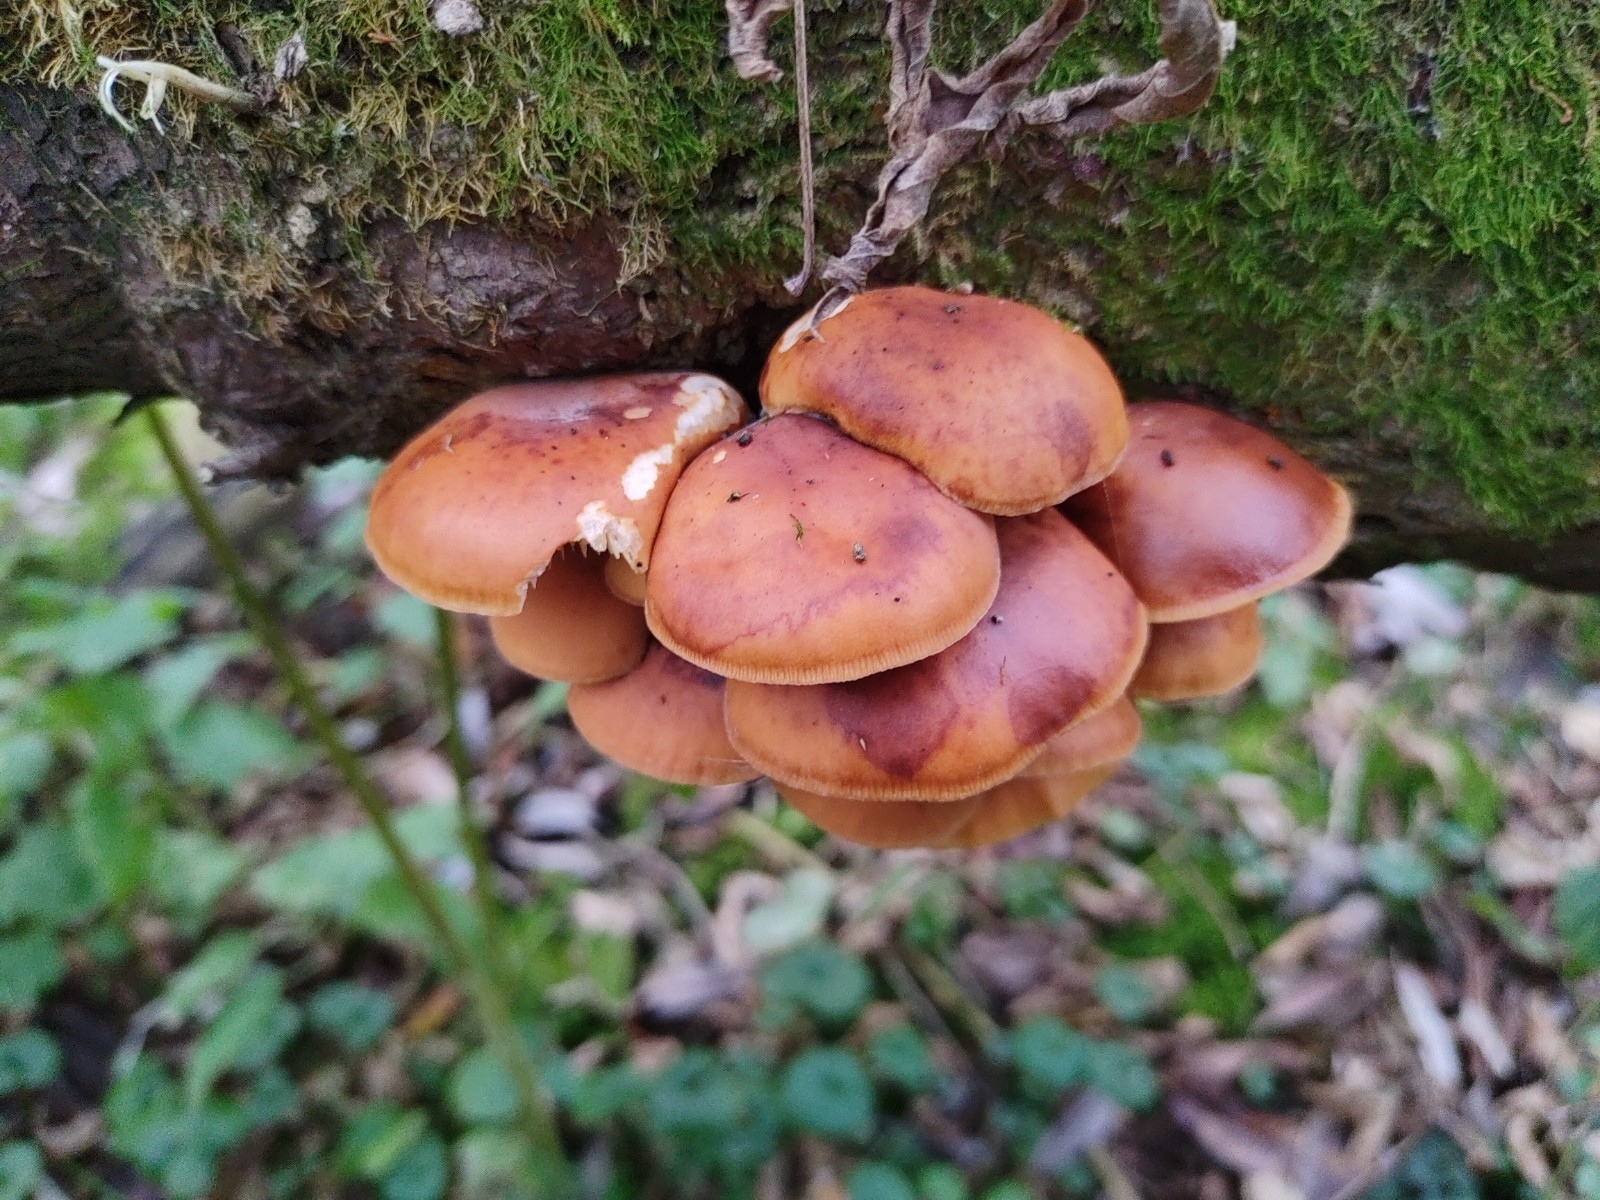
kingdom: Fungi
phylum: Basidiomycota
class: Agaricomycetes
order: Agaricales
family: Physalacriaceae
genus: Flammulina
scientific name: Flammulina
